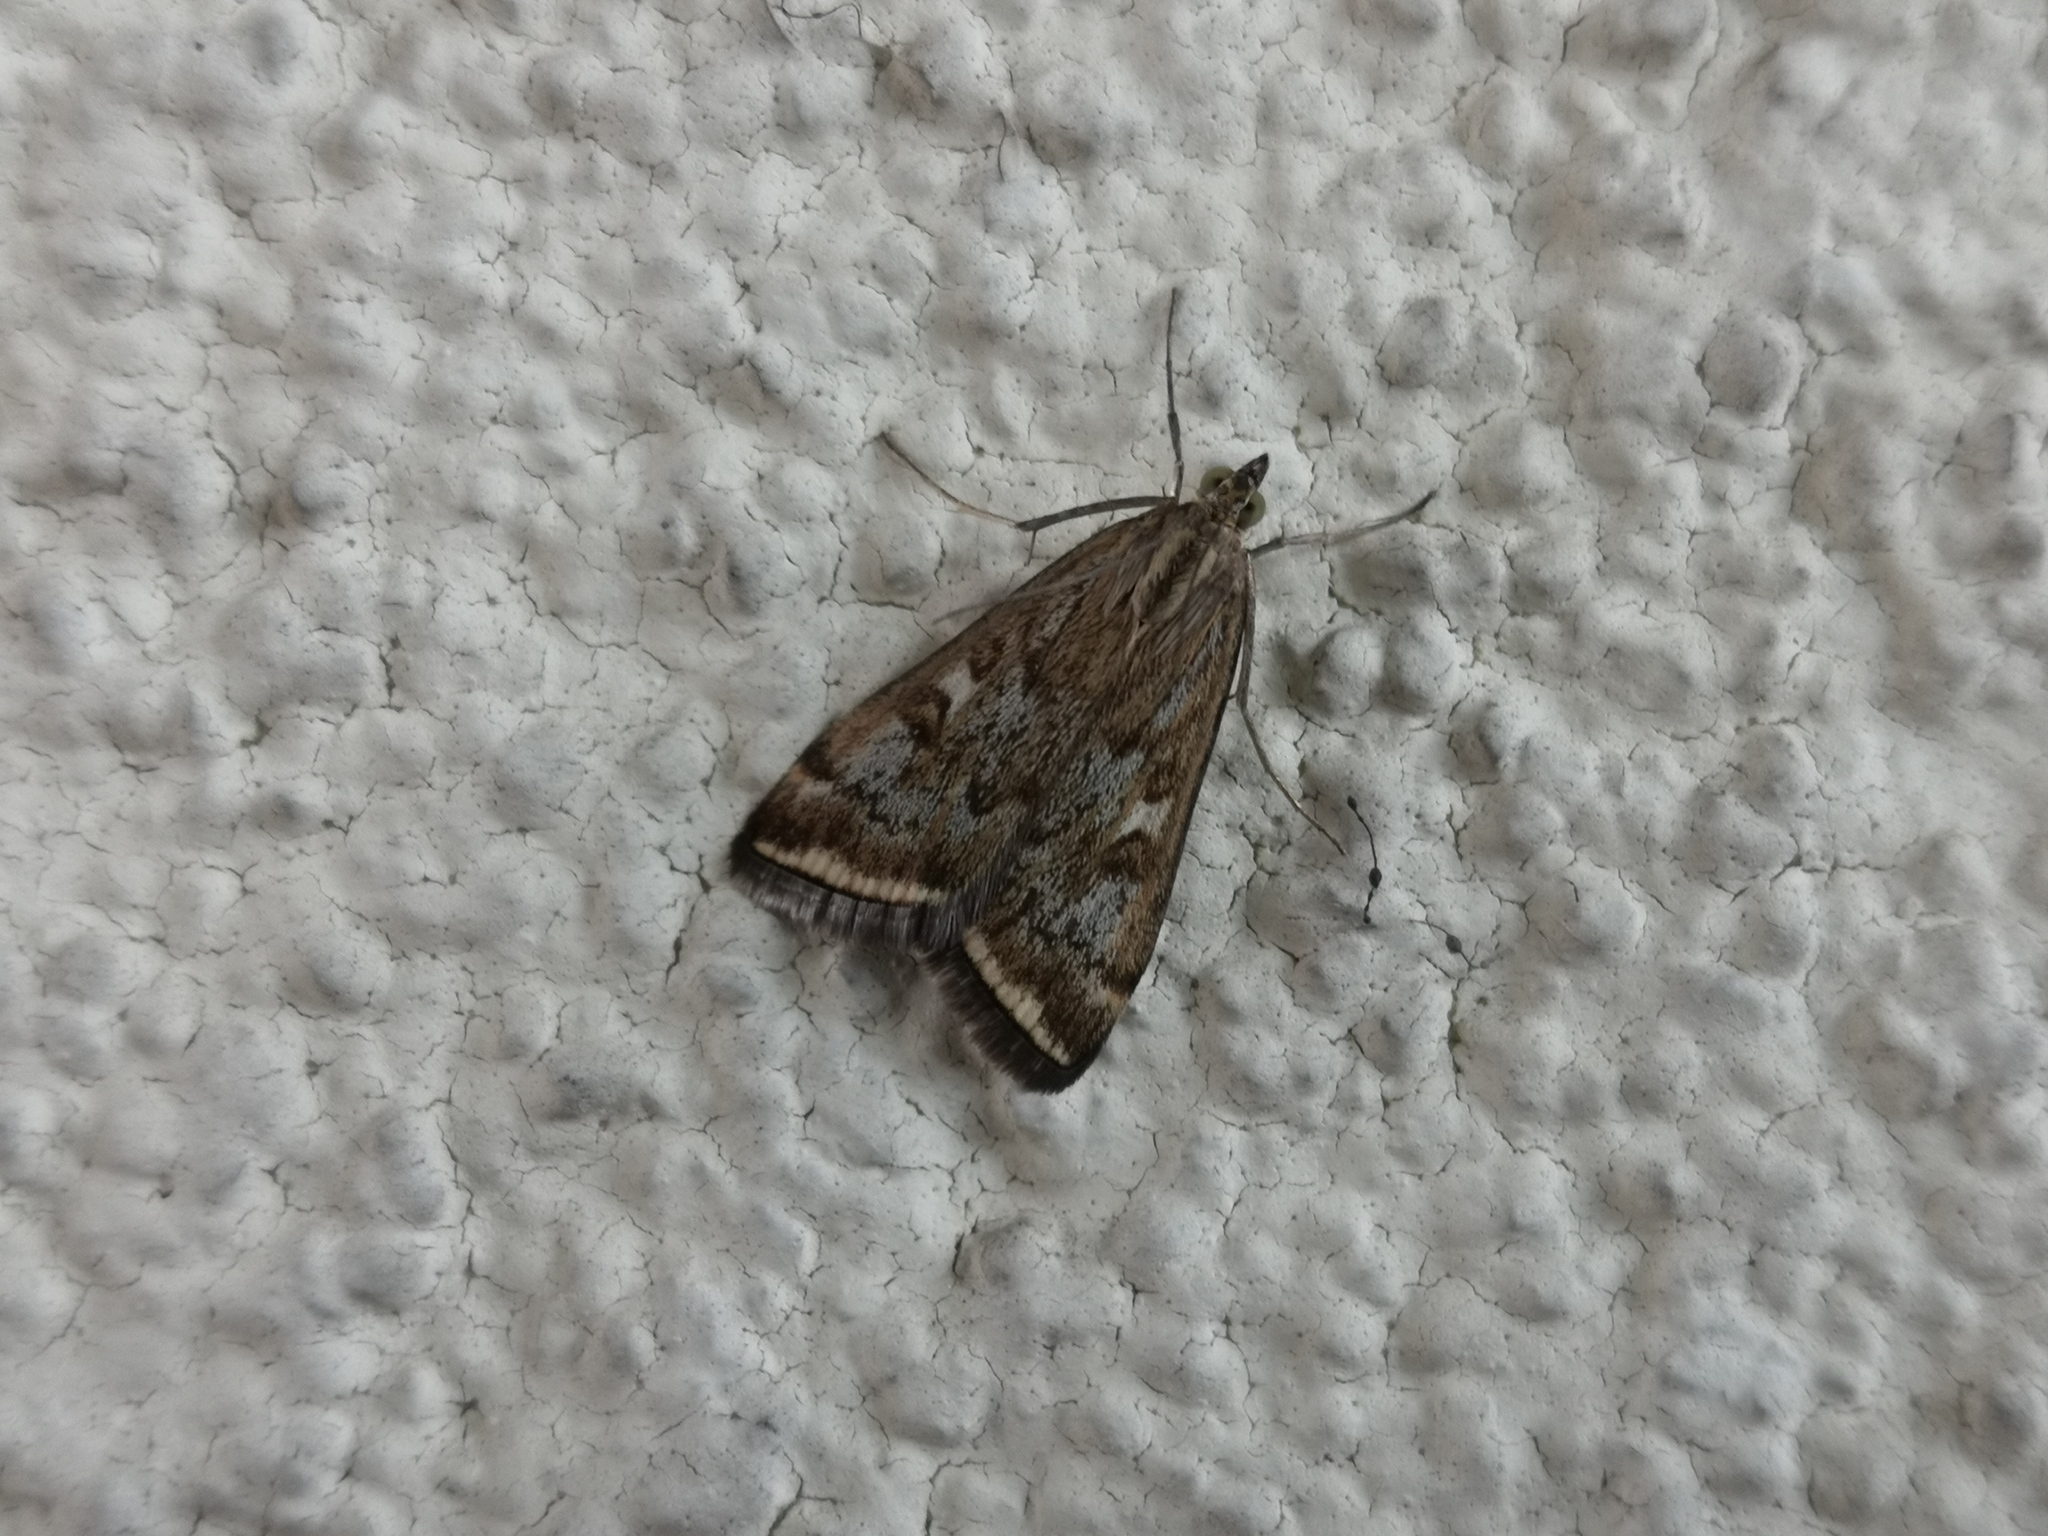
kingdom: Animalia
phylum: Arthropoda
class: Insecta
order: Lepidoptera
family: Crambidae
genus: Loxostege
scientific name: Loxostege sticticalis
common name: Crambid moth
